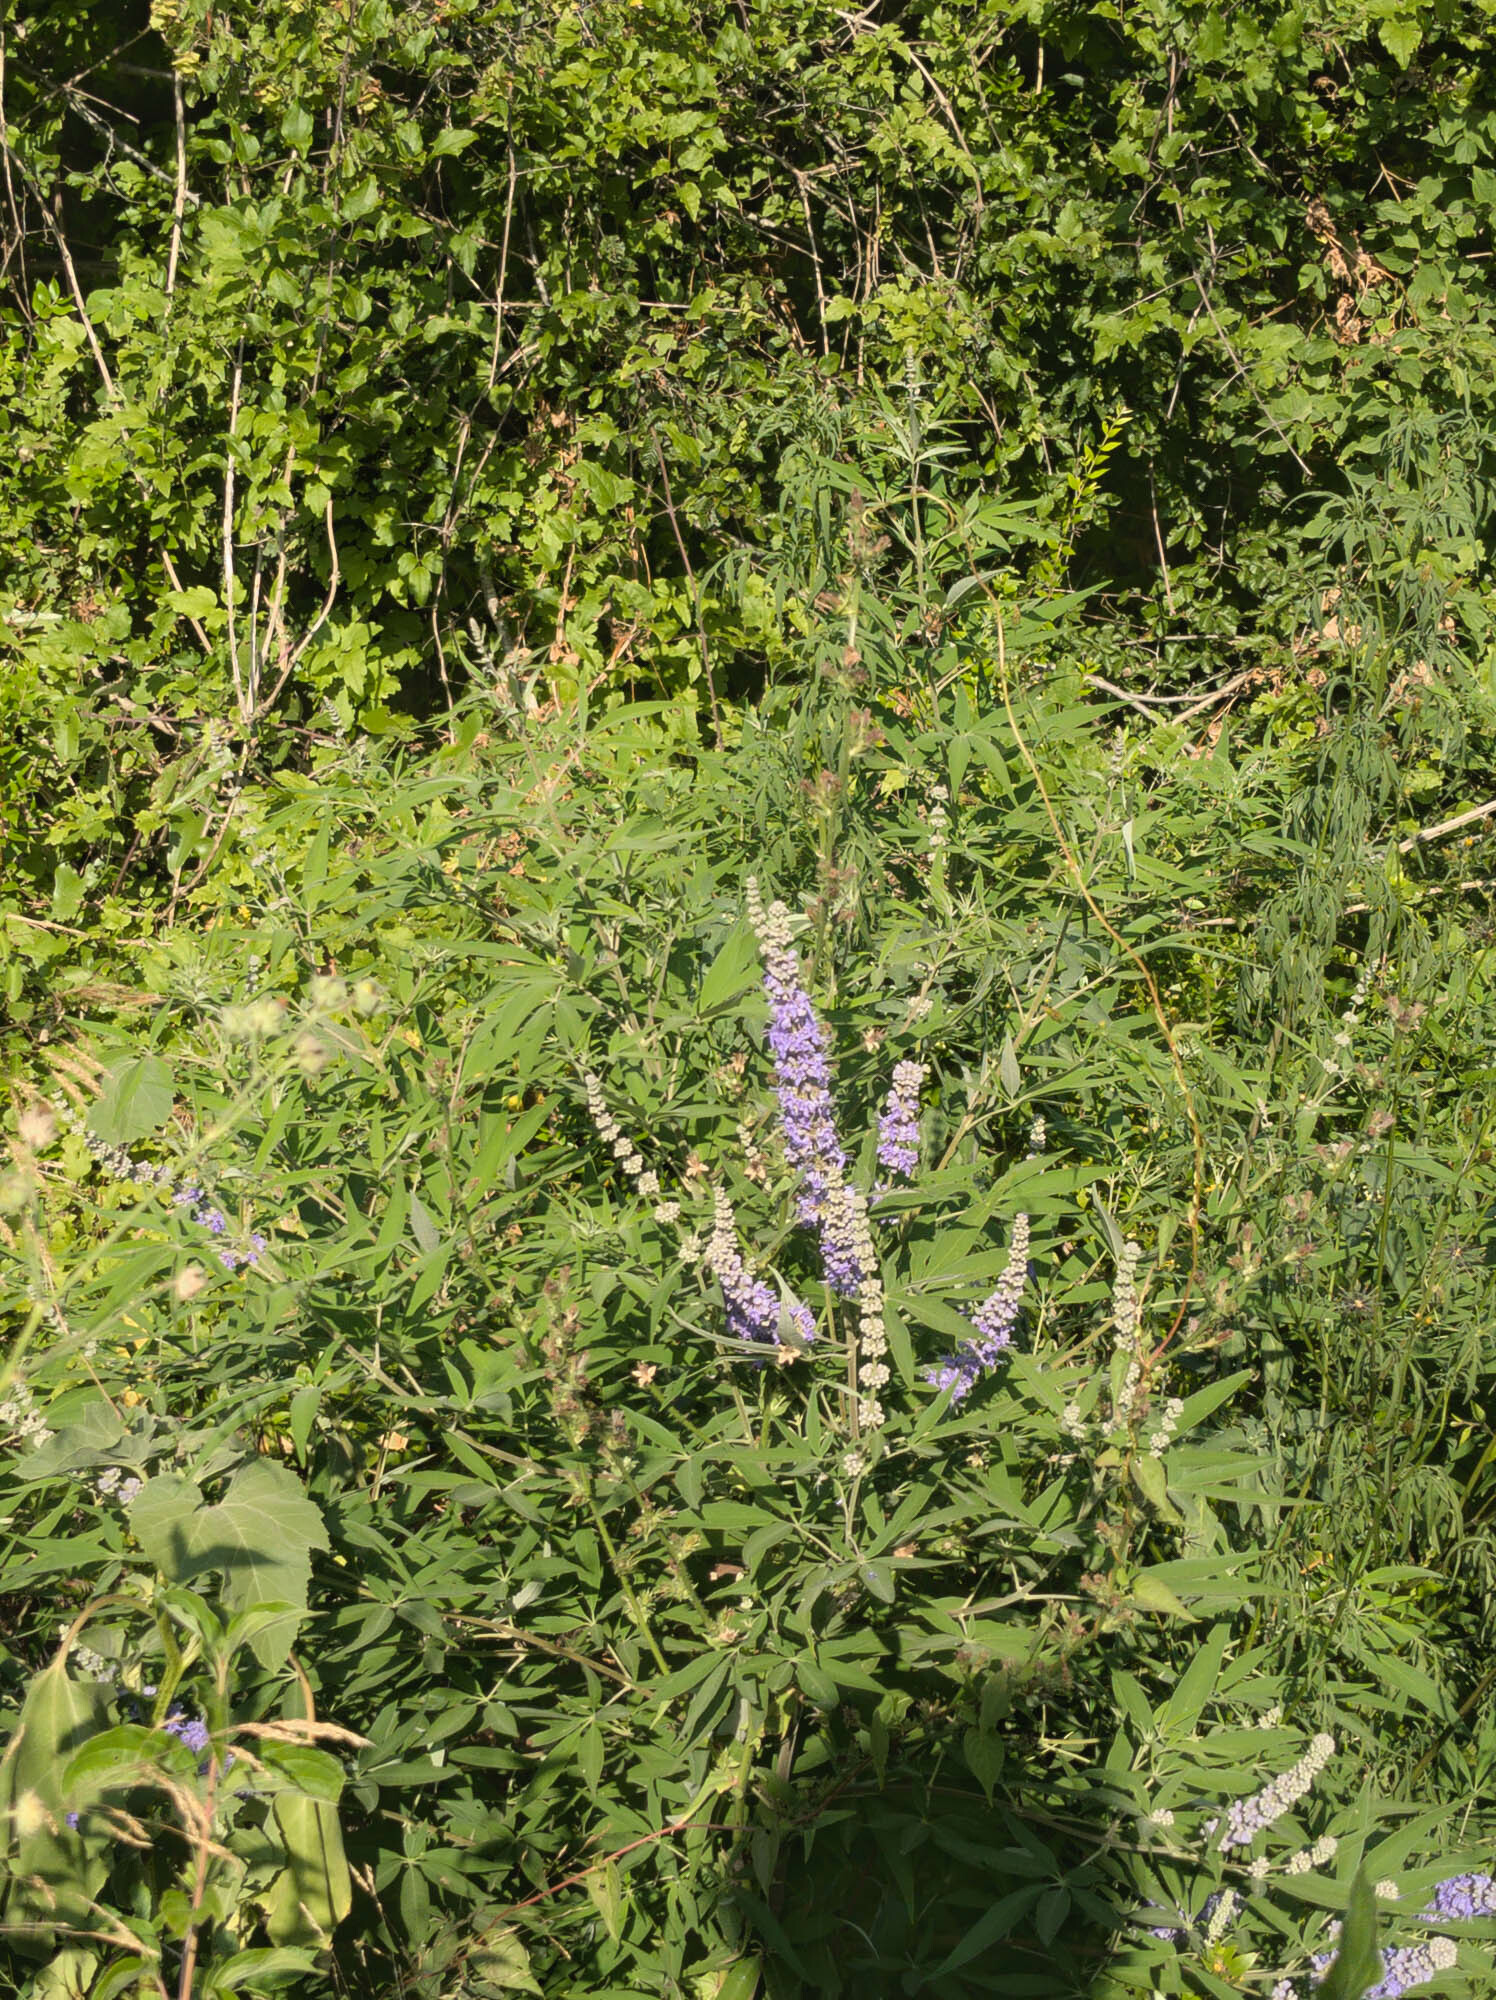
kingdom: Plantae
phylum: Tracheophyta
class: Magnoliopsida
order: Lamiales
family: Lamiaceae
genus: Vitex
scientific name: Vitex agnus-castus
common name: Chasteberry
